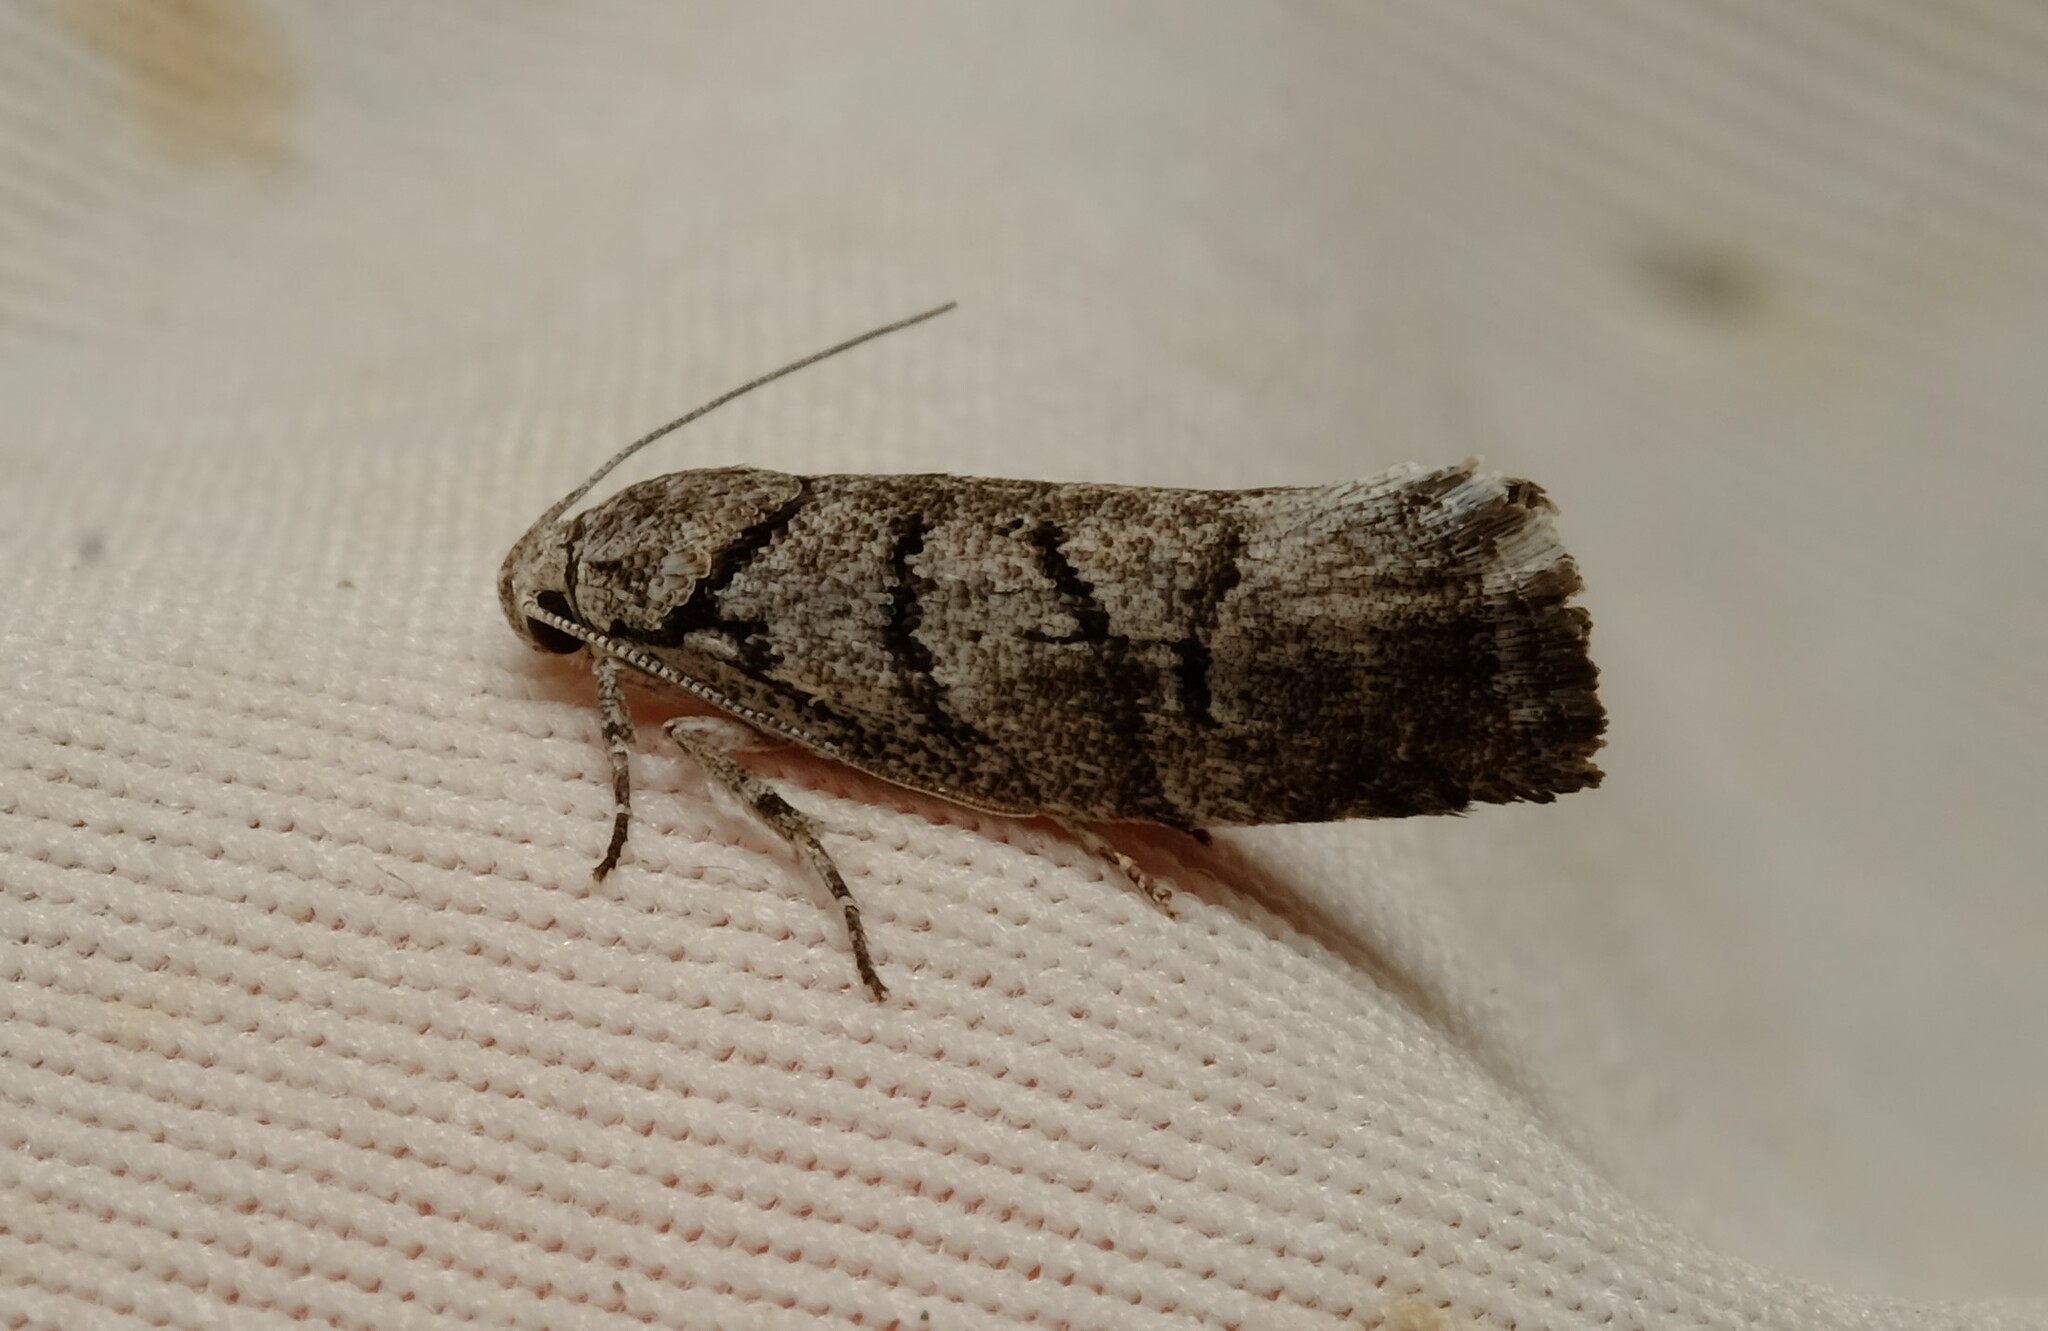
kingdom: Animalia
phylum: Arthropoda
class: Insecta
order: Lepidoptera
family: Xyloryctidae
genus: Lichenaula
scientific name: Lichenaula onychodes
